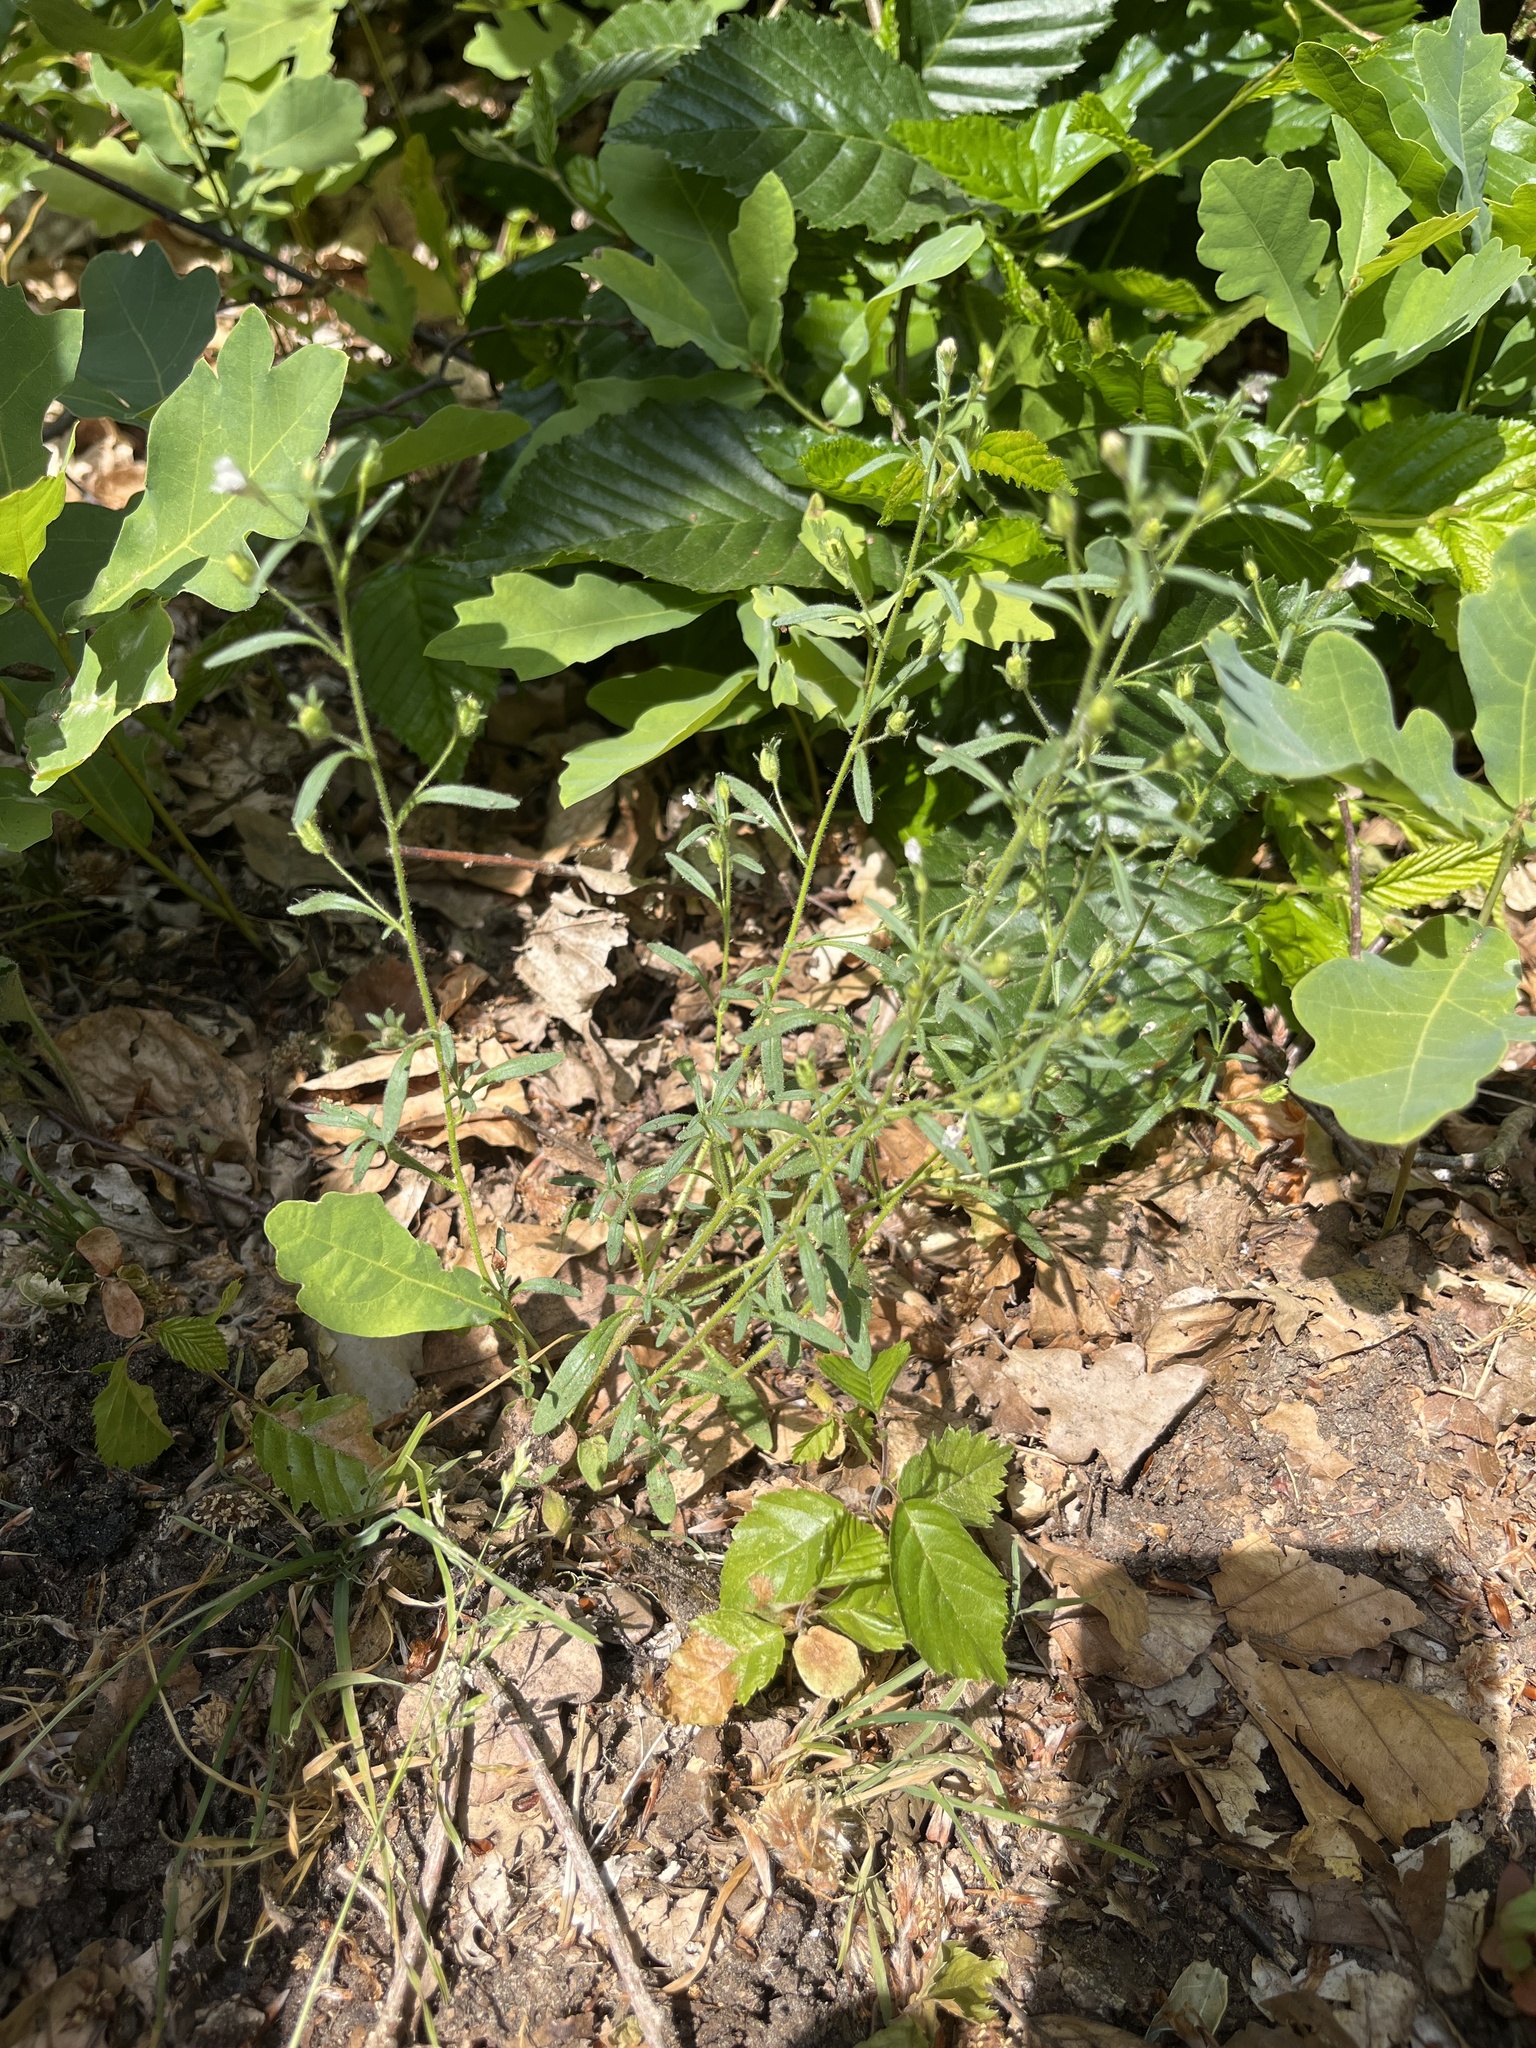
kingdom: Plantae
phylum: Tracheophyta
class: Magnoliopsida
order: Lamiales
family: Plantaginaceae
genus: Chaenorhinum
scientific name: Chaenorhinum minus
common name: Dwarf snapdragon
